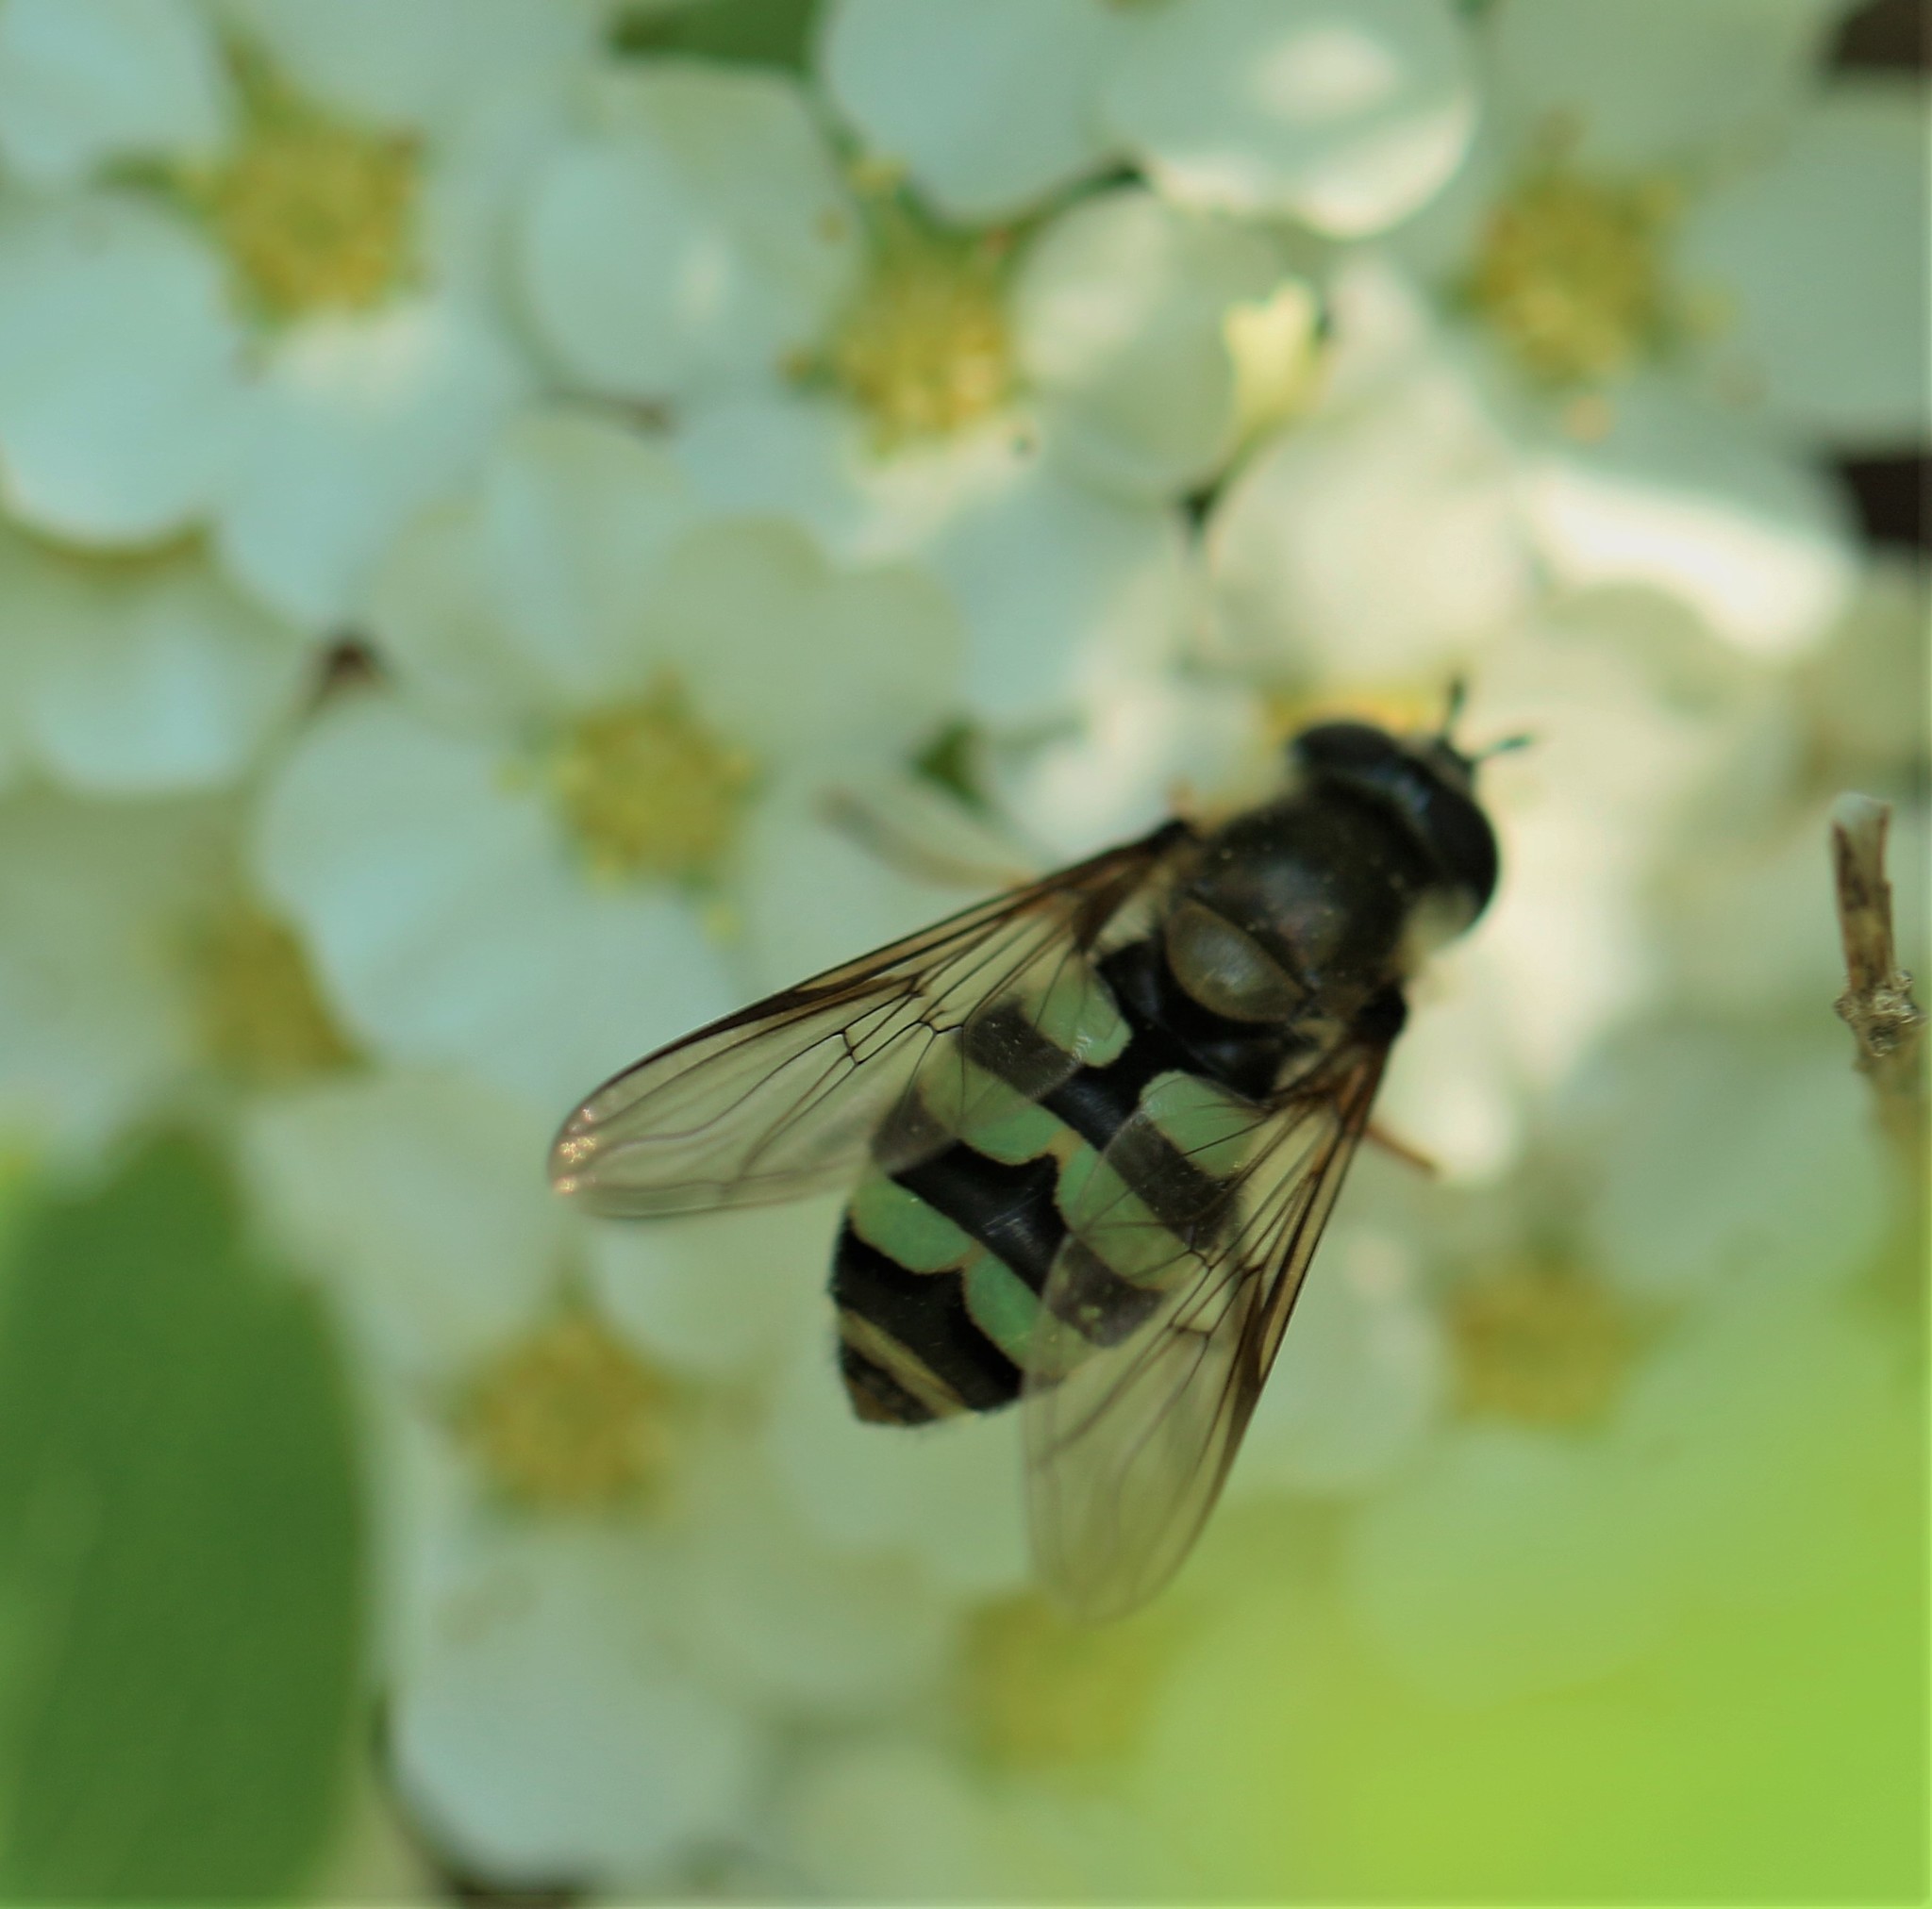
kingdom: Animalia
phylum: Arthropoda
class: Insecta
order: Diptera
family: Syrphidae
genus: Megasyrphus
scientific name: Megasyrphus laxus
